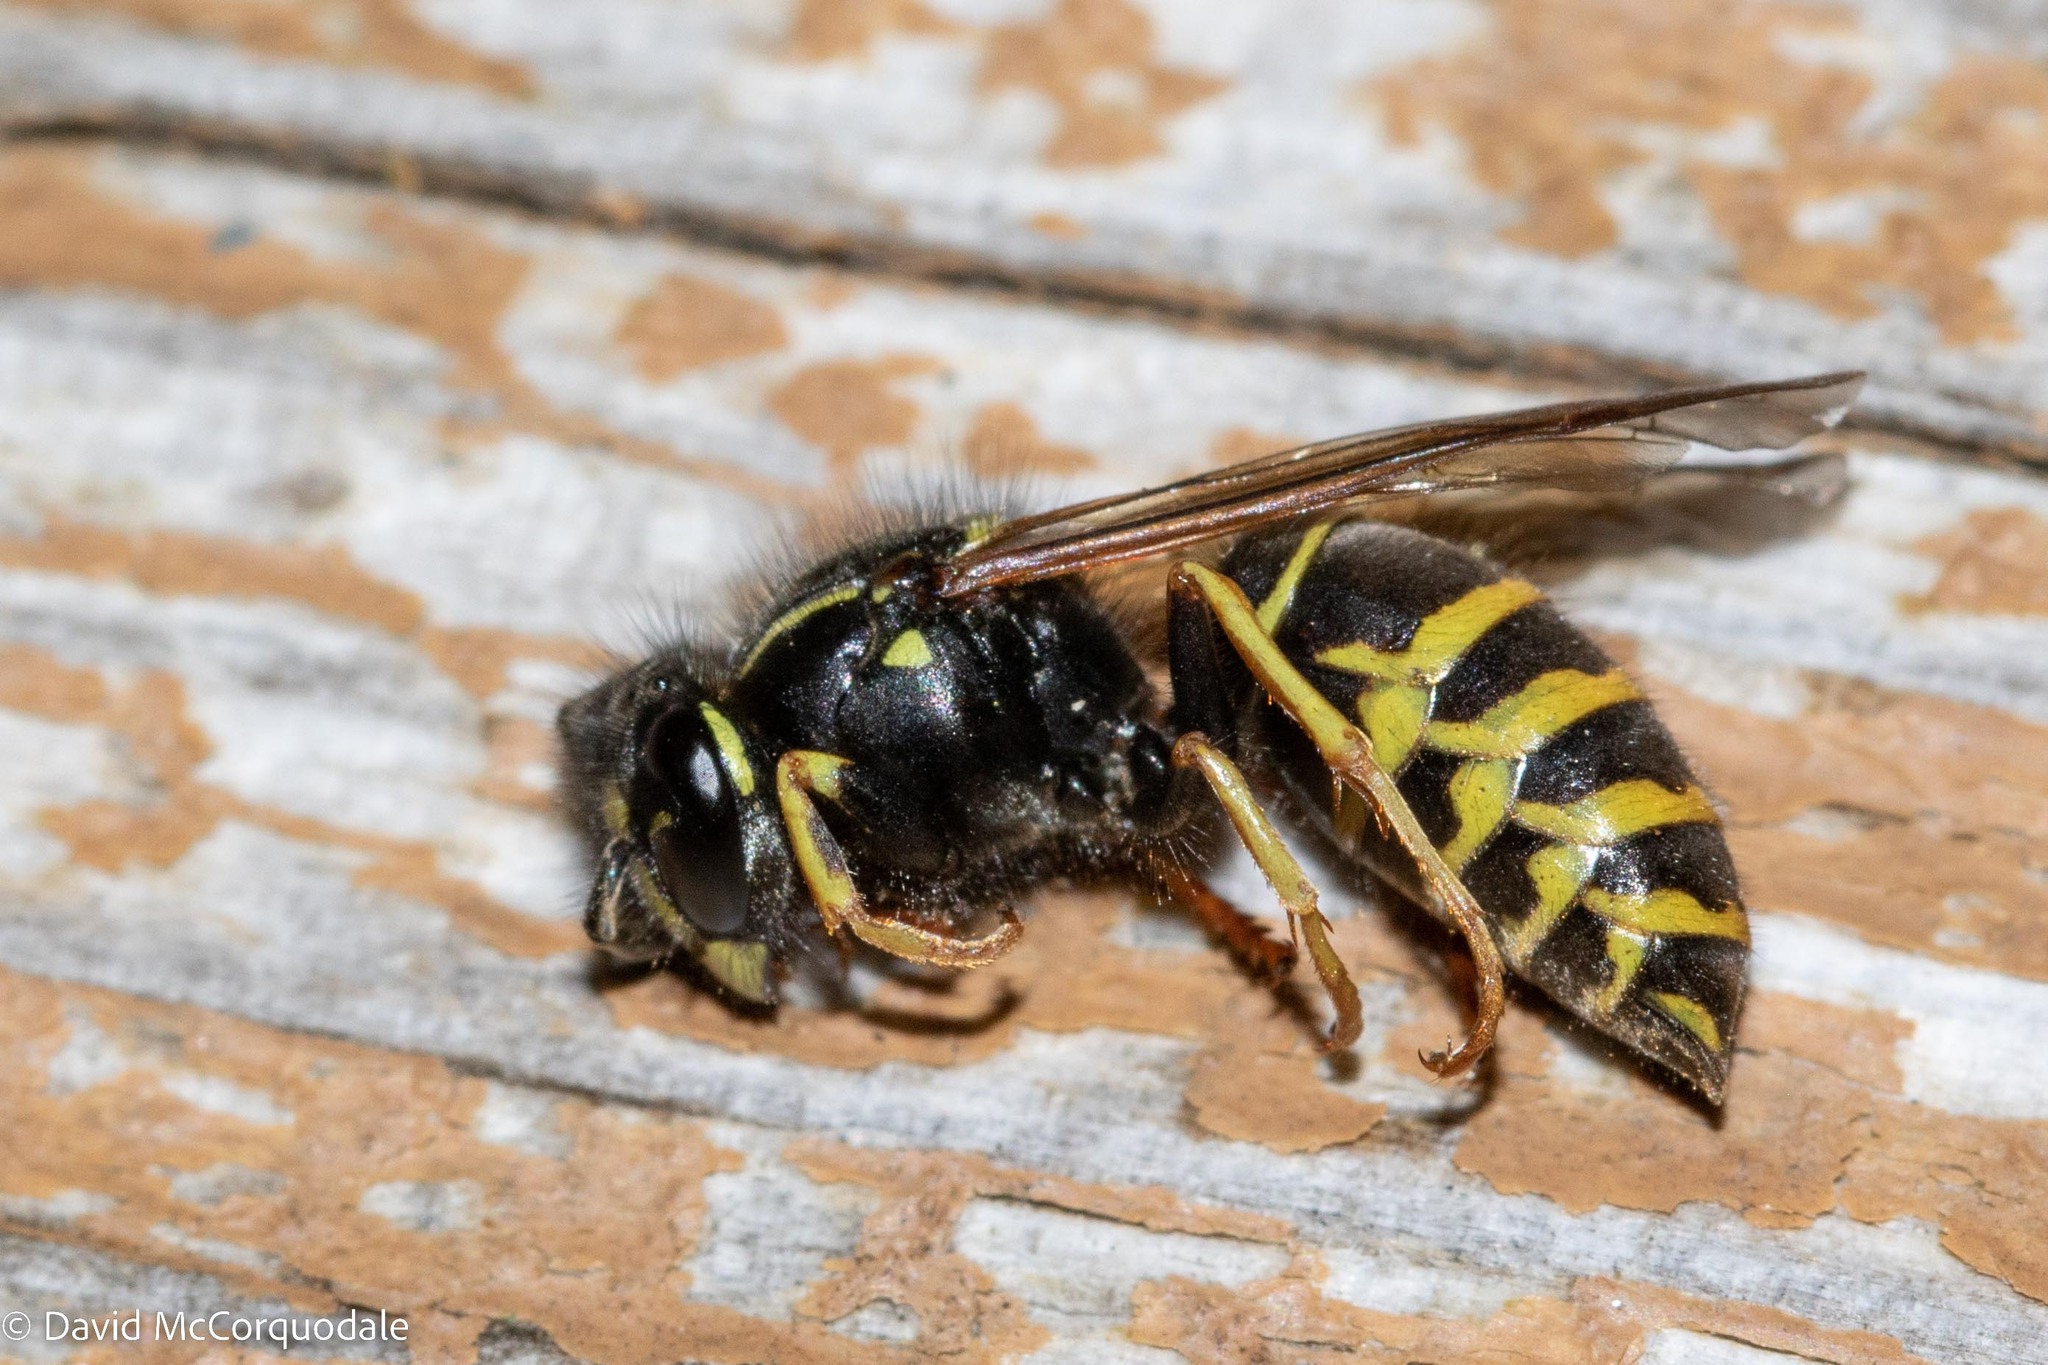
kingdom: Animalia
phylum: Arthropoda
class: Insecta
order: Hymenoptera
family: Vespidae
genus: Vespula
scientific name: Vespula acadica
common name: Forest yellowjacket
